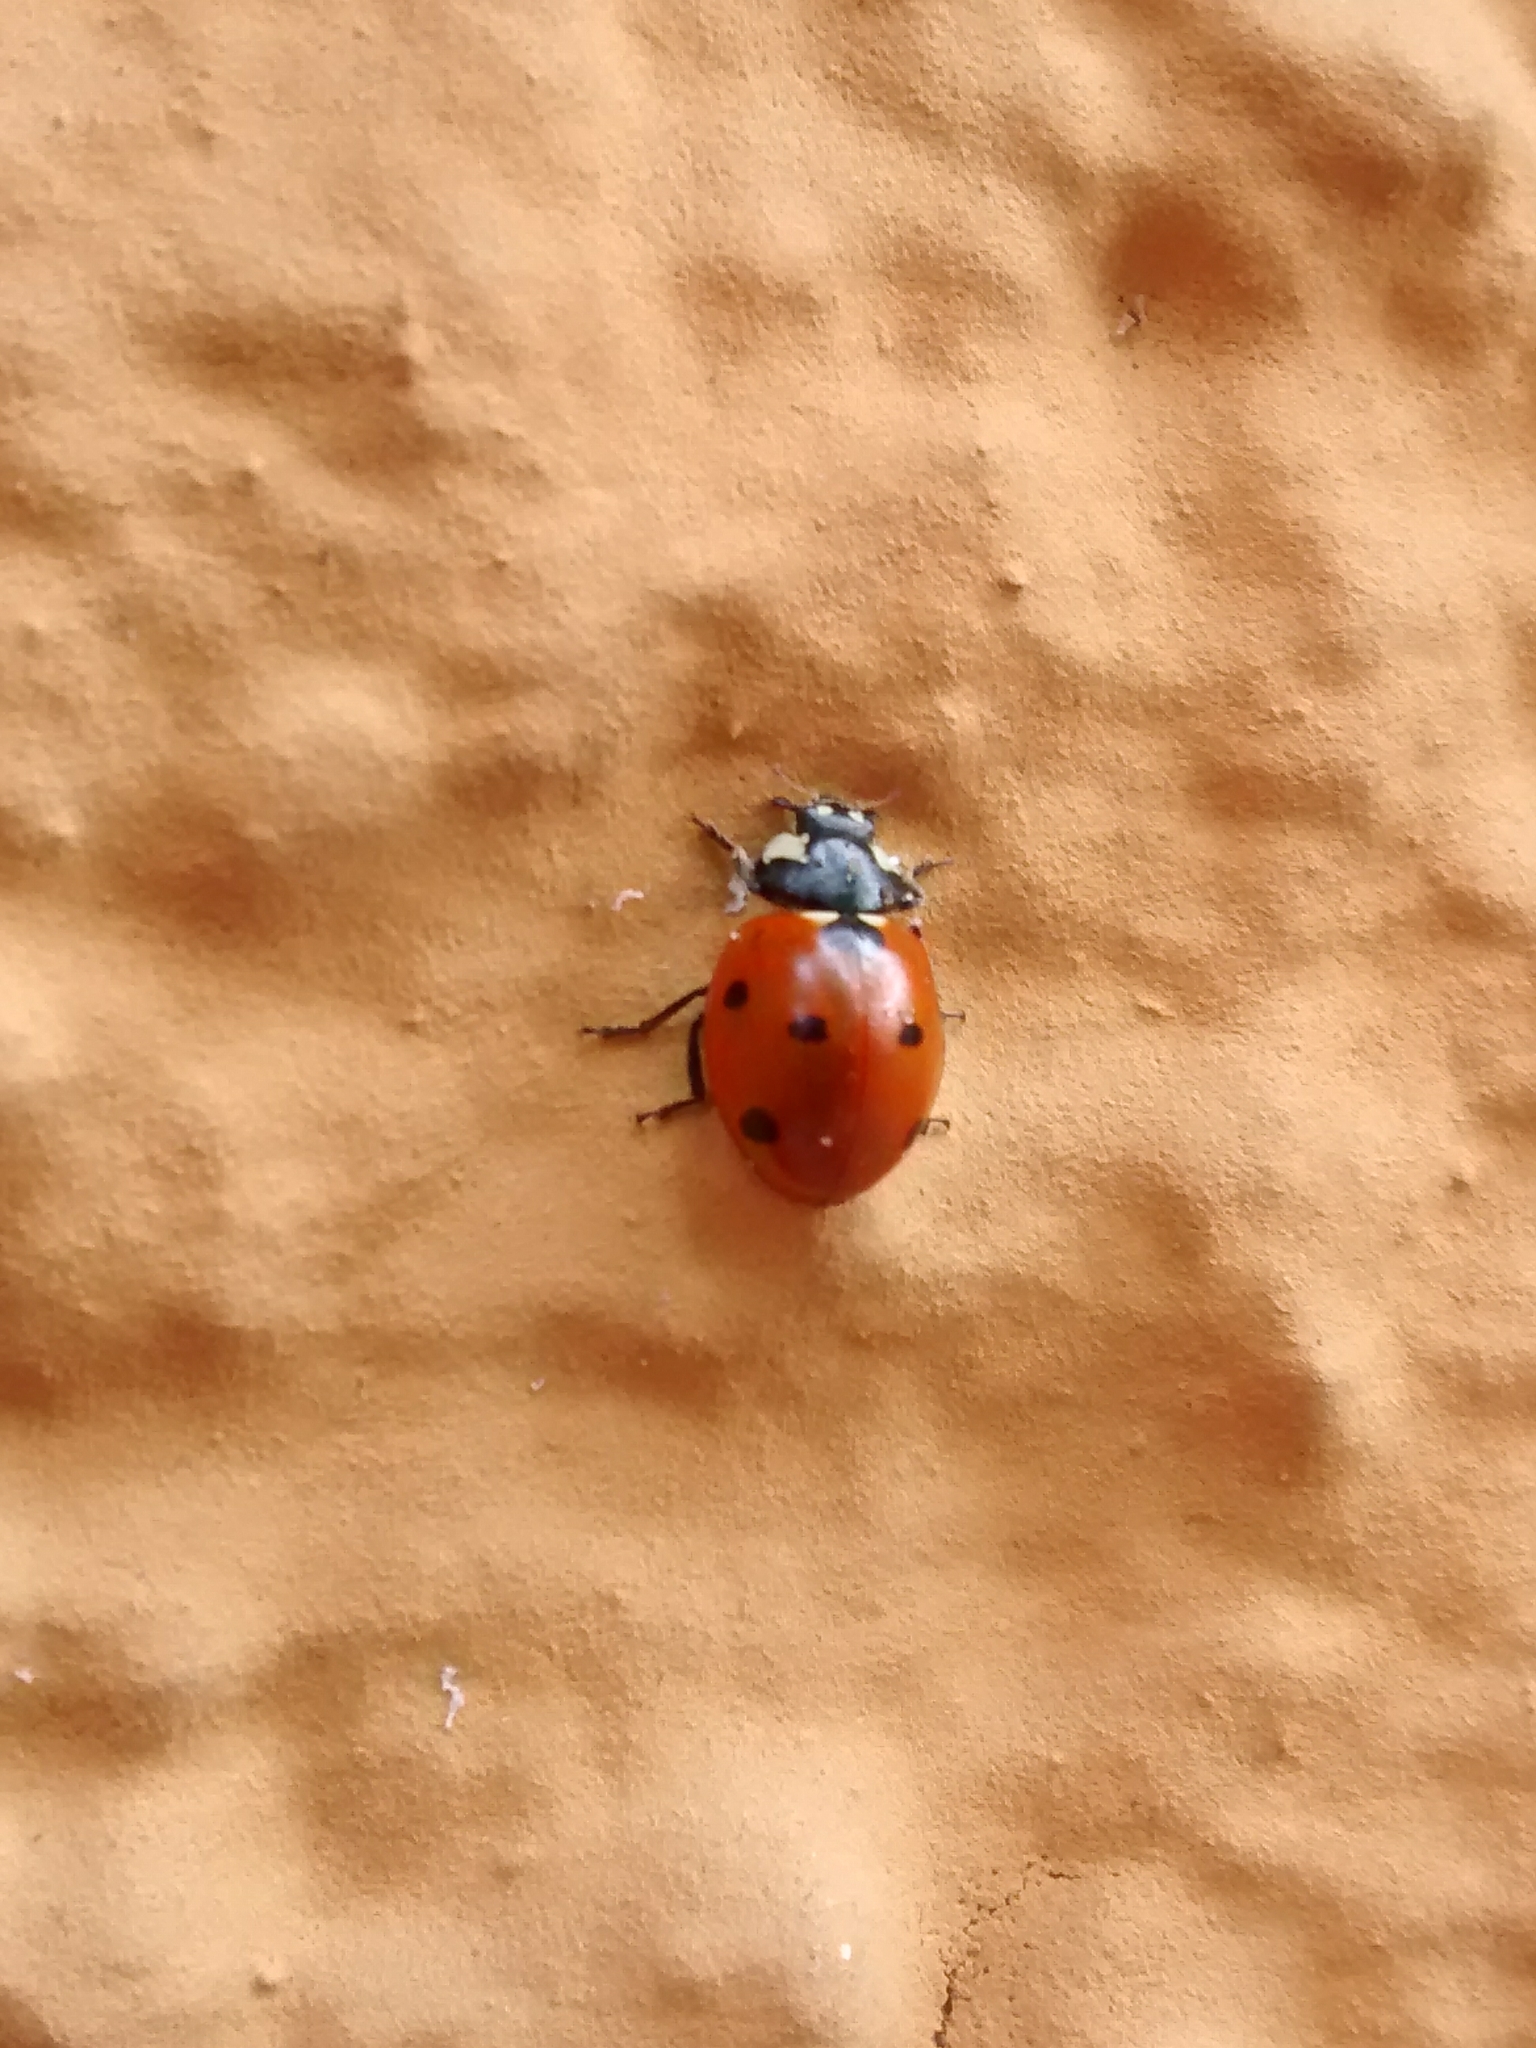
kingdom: Animalia
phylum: Arthropoda
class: Insecta
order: Coleoptera
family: Coccinellidae
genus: Coccinella
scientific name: Coccinella septempunctata
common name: Sevenspotted lady beetle
